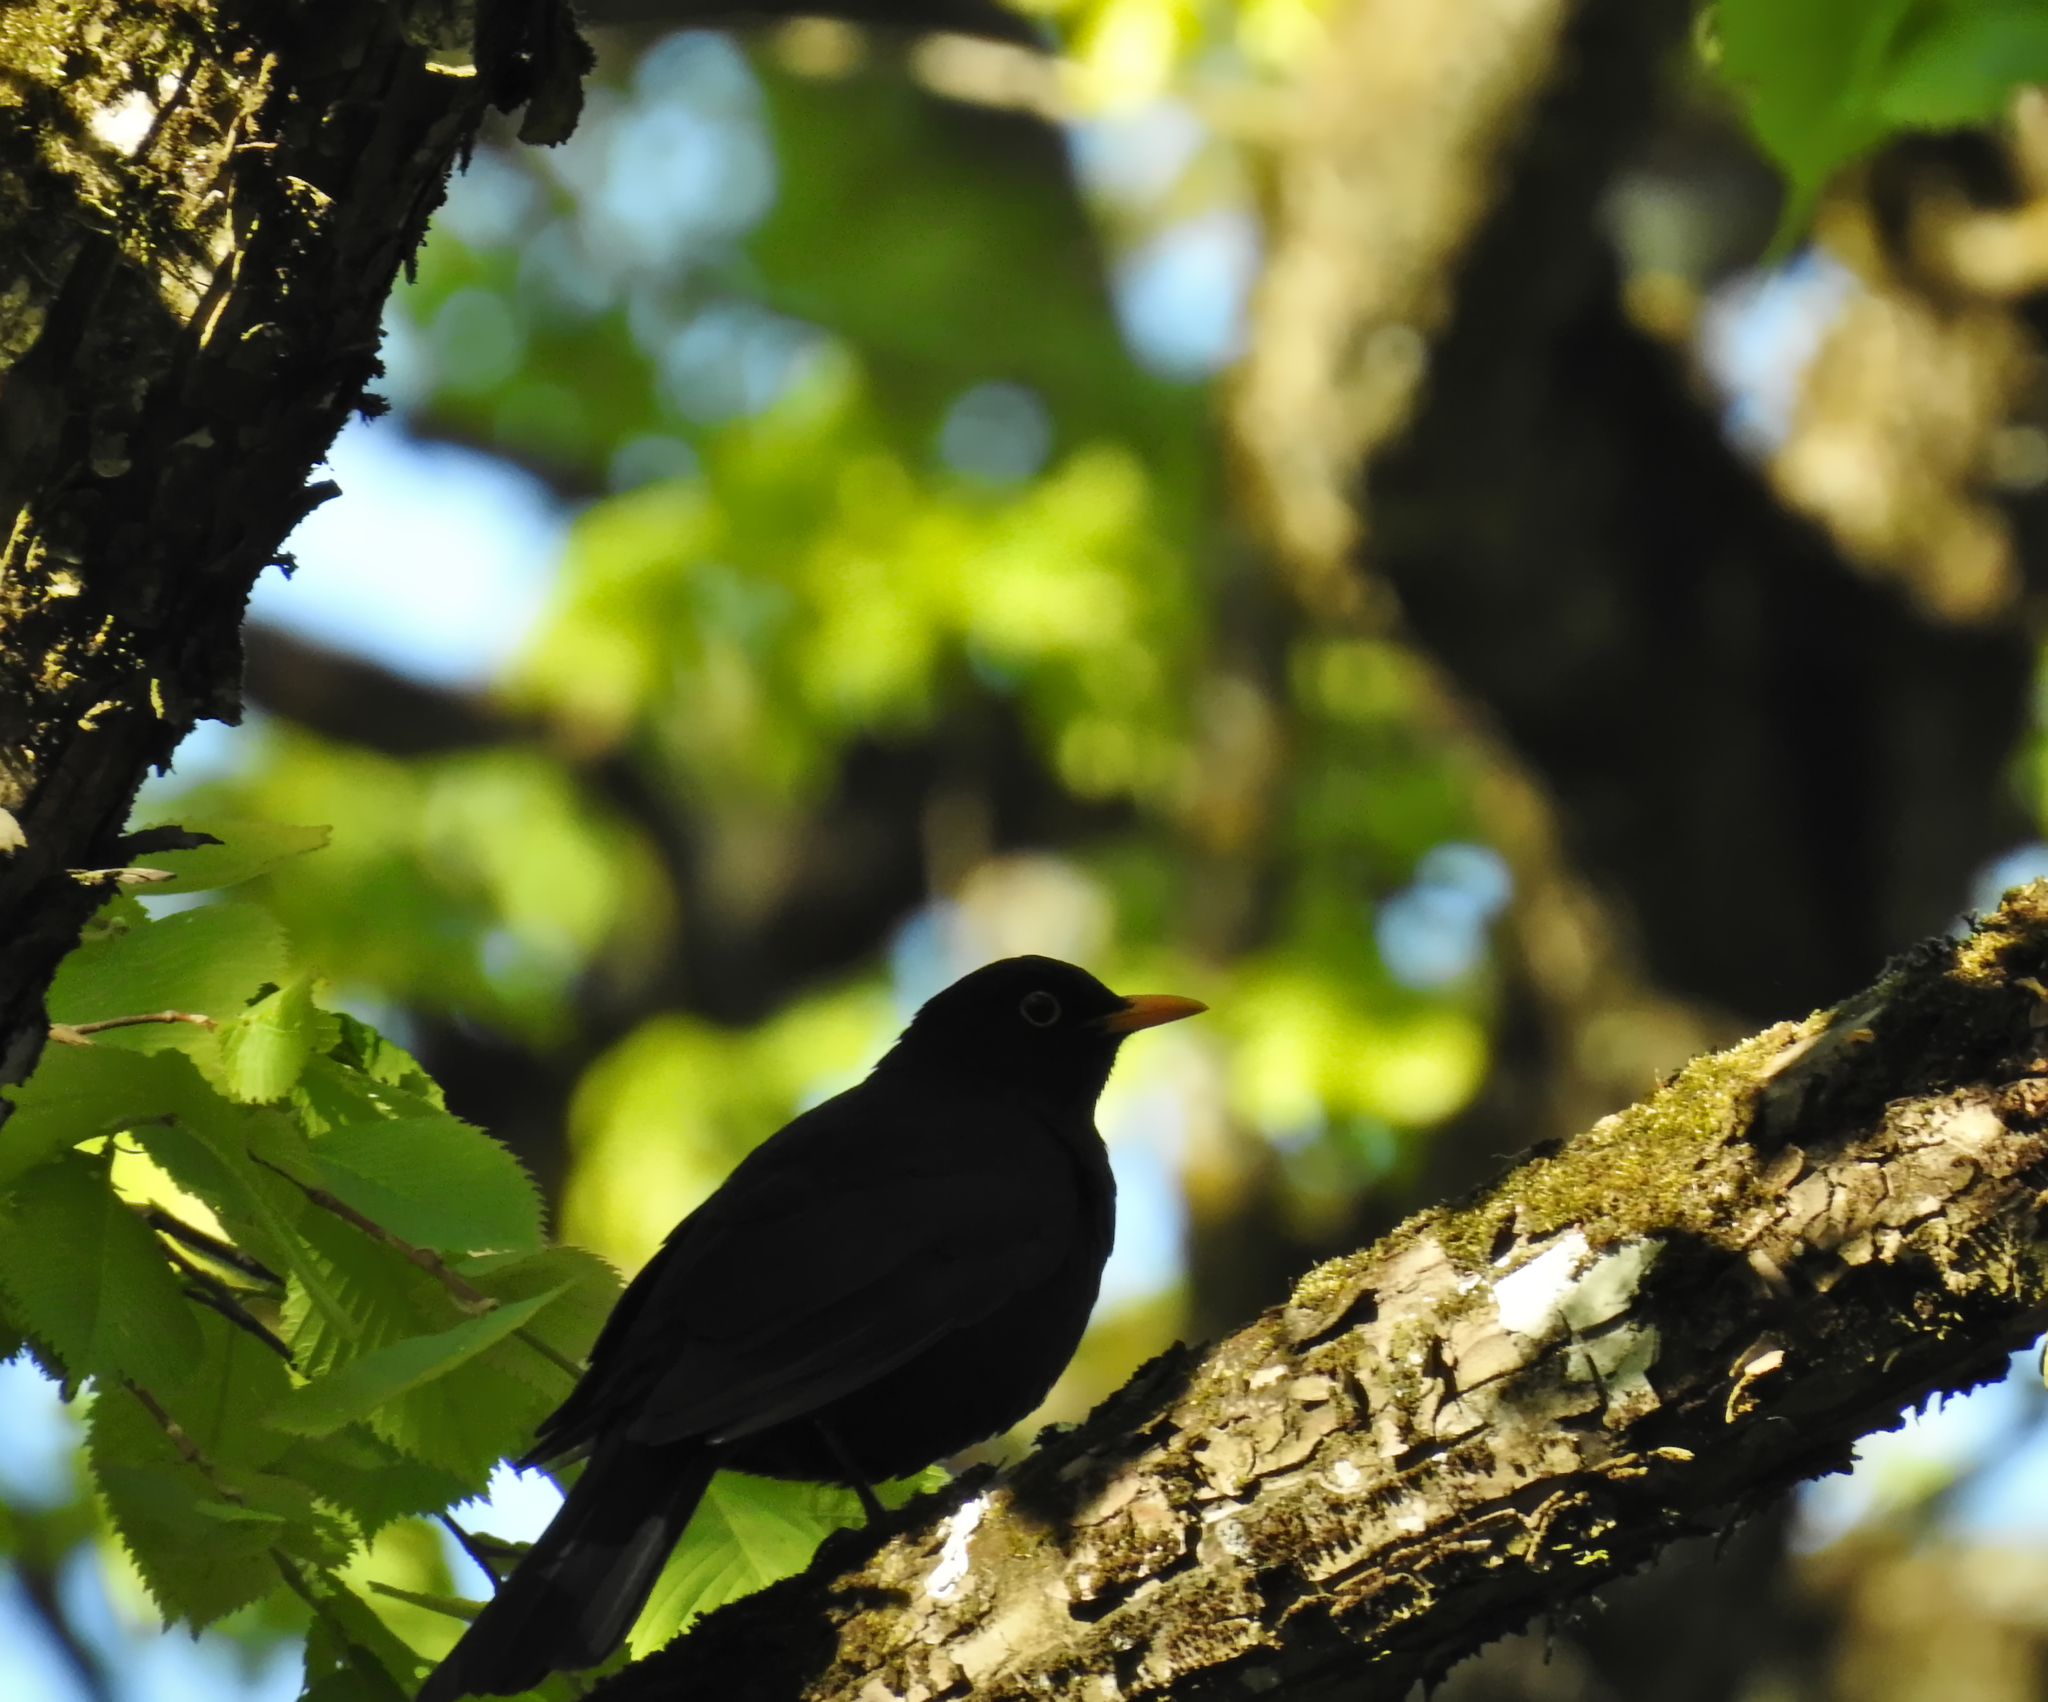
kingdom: Animalia
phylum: Chordata
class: Aves
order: Passeriformes
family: Turdidae
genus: Turdus
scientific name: Turdus merula
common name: Common blackbird
